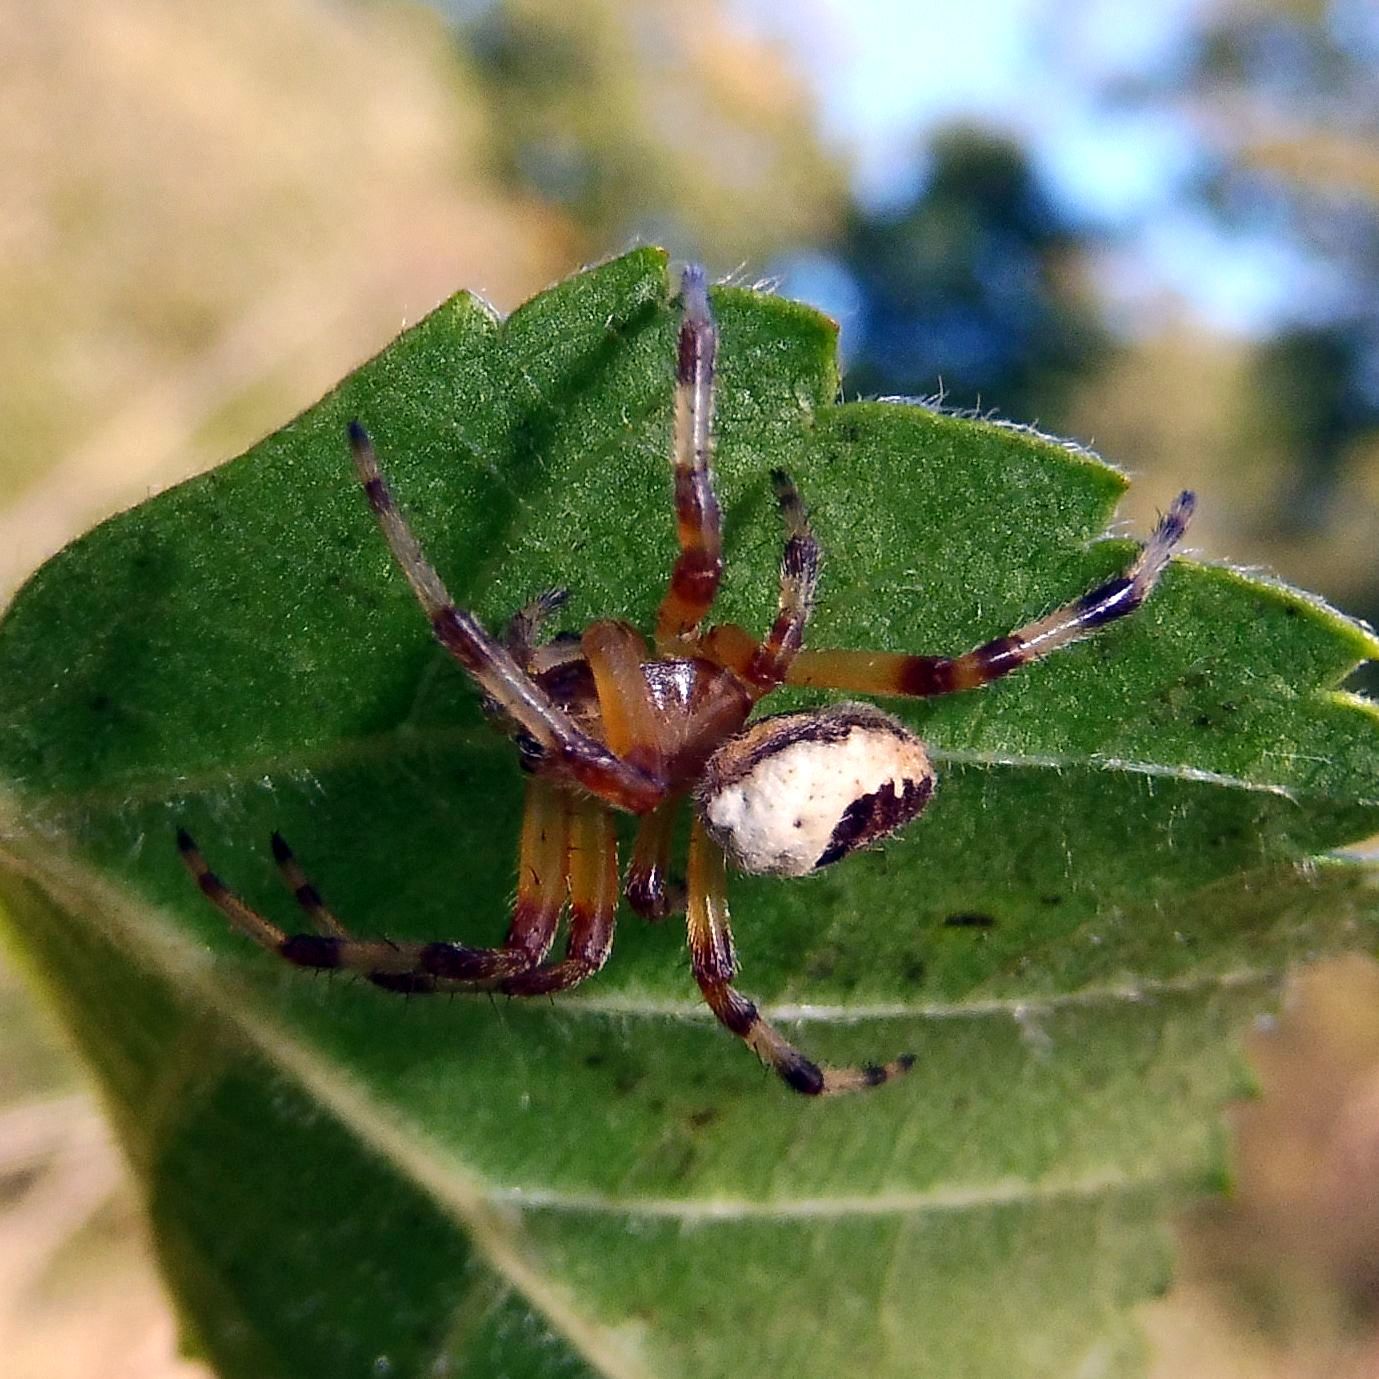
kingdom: Animalia
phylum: Arthropoda
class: Arachnida
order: Araneae
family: Araneidae
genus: Araneus
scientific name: Araneus marmoreus
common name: Marbled orbweaver
